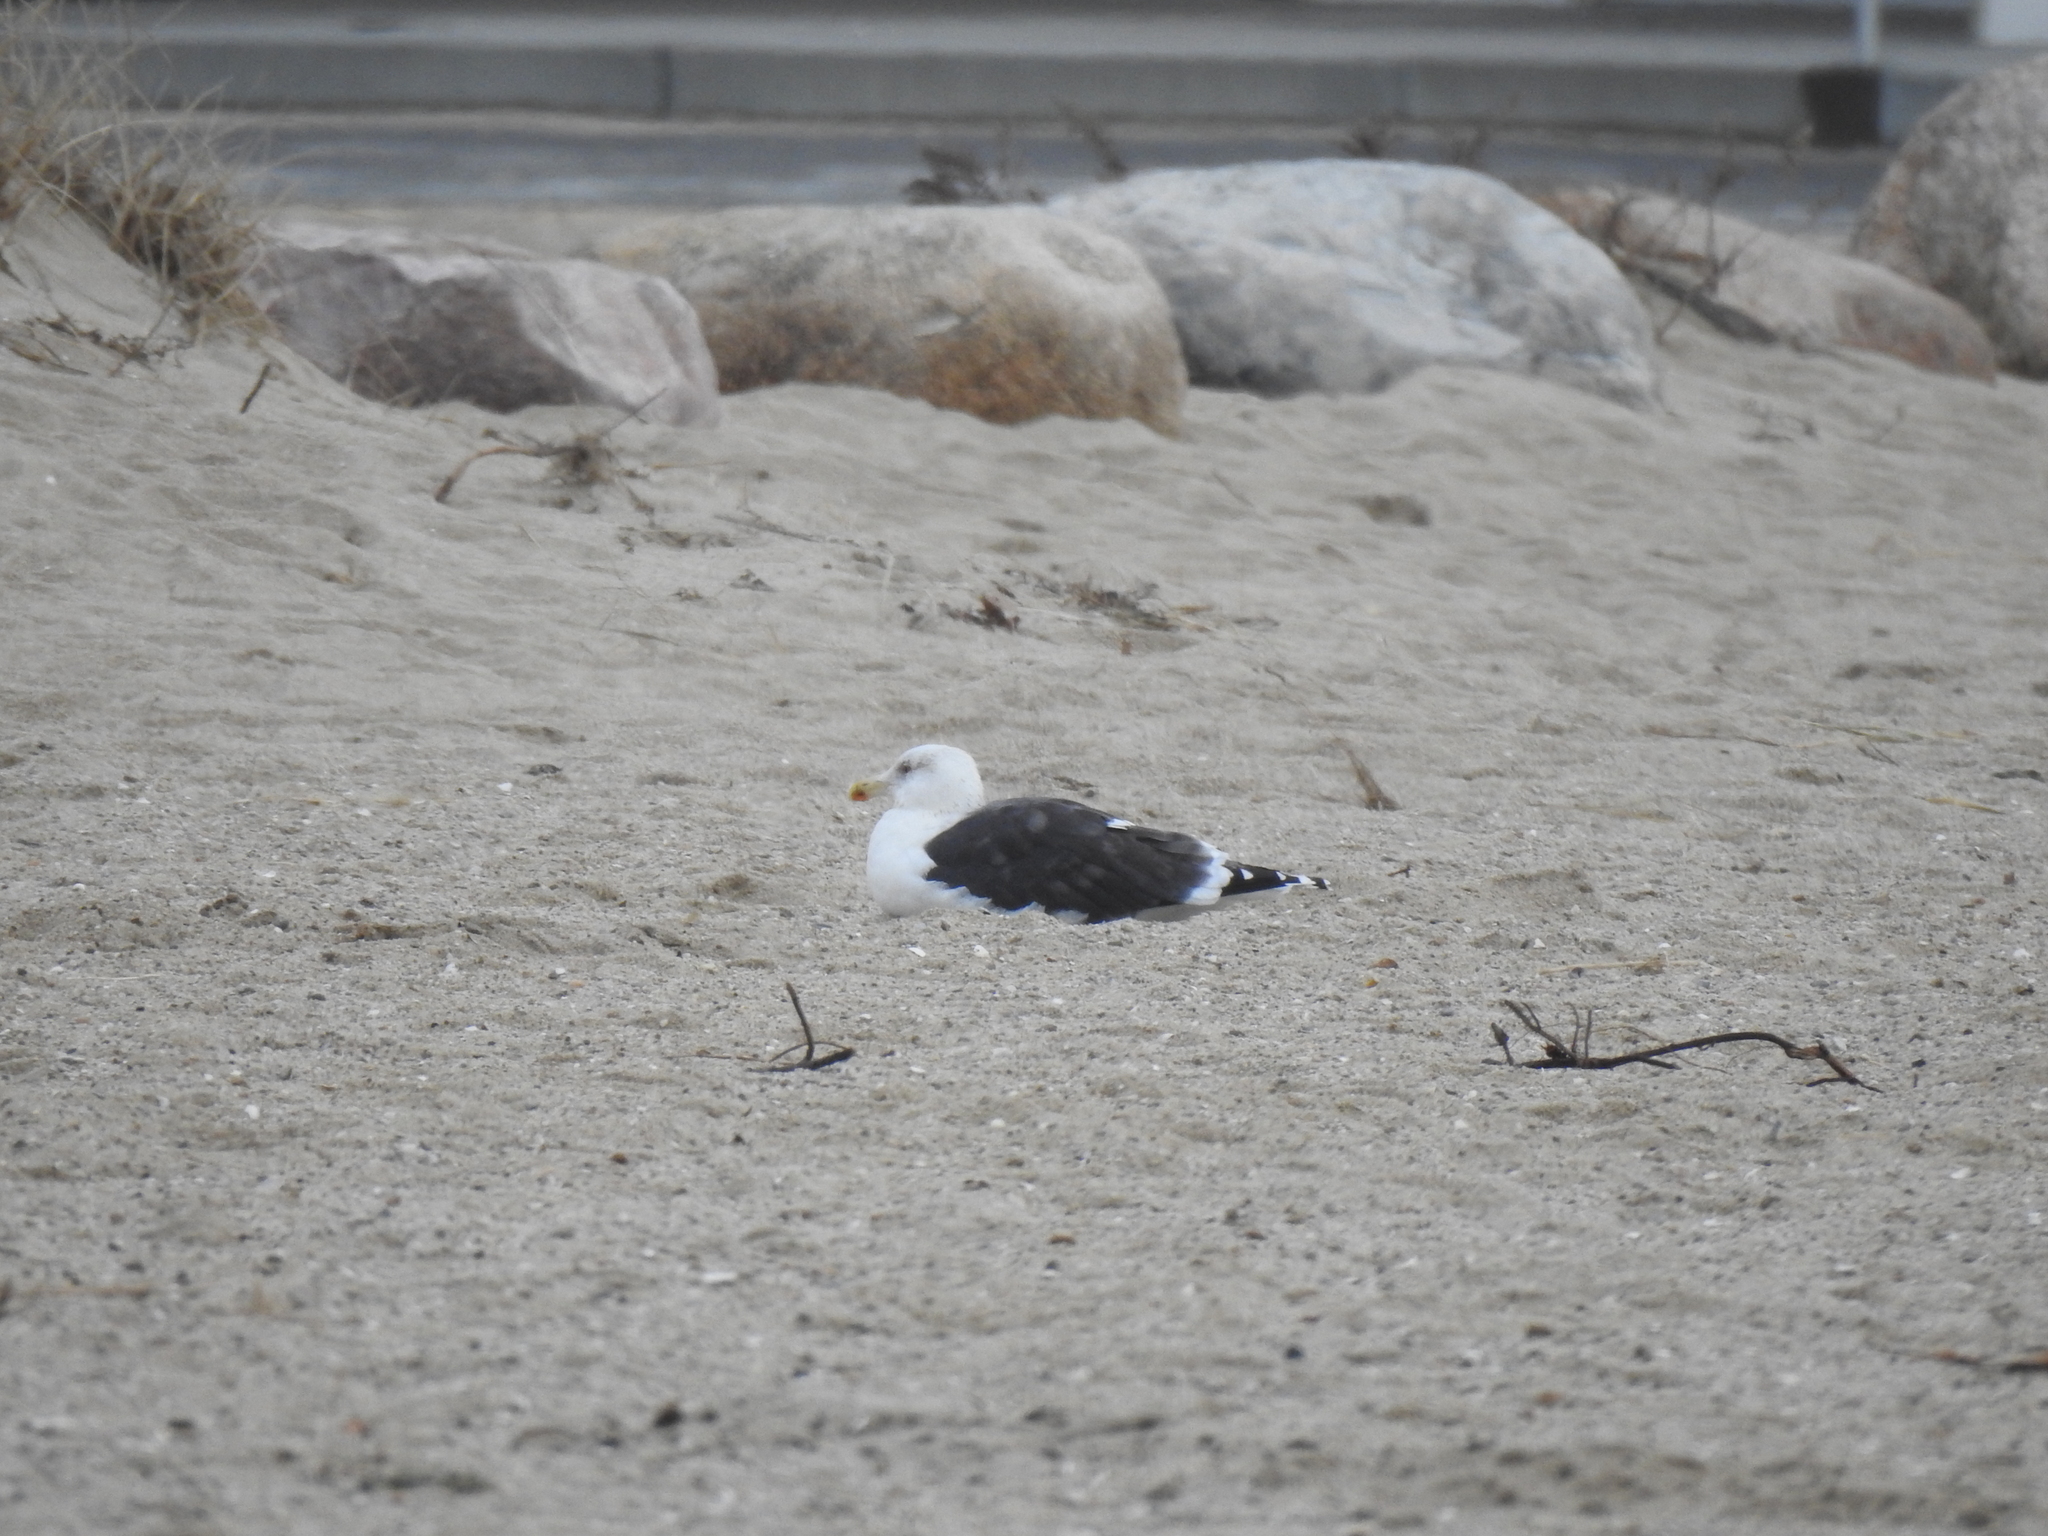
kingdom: Animalia
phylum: Chordata
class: Aves
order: Charadriiformes
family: Laridae
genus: Larus
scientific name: Larus marinus
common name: Great black-backed gull
